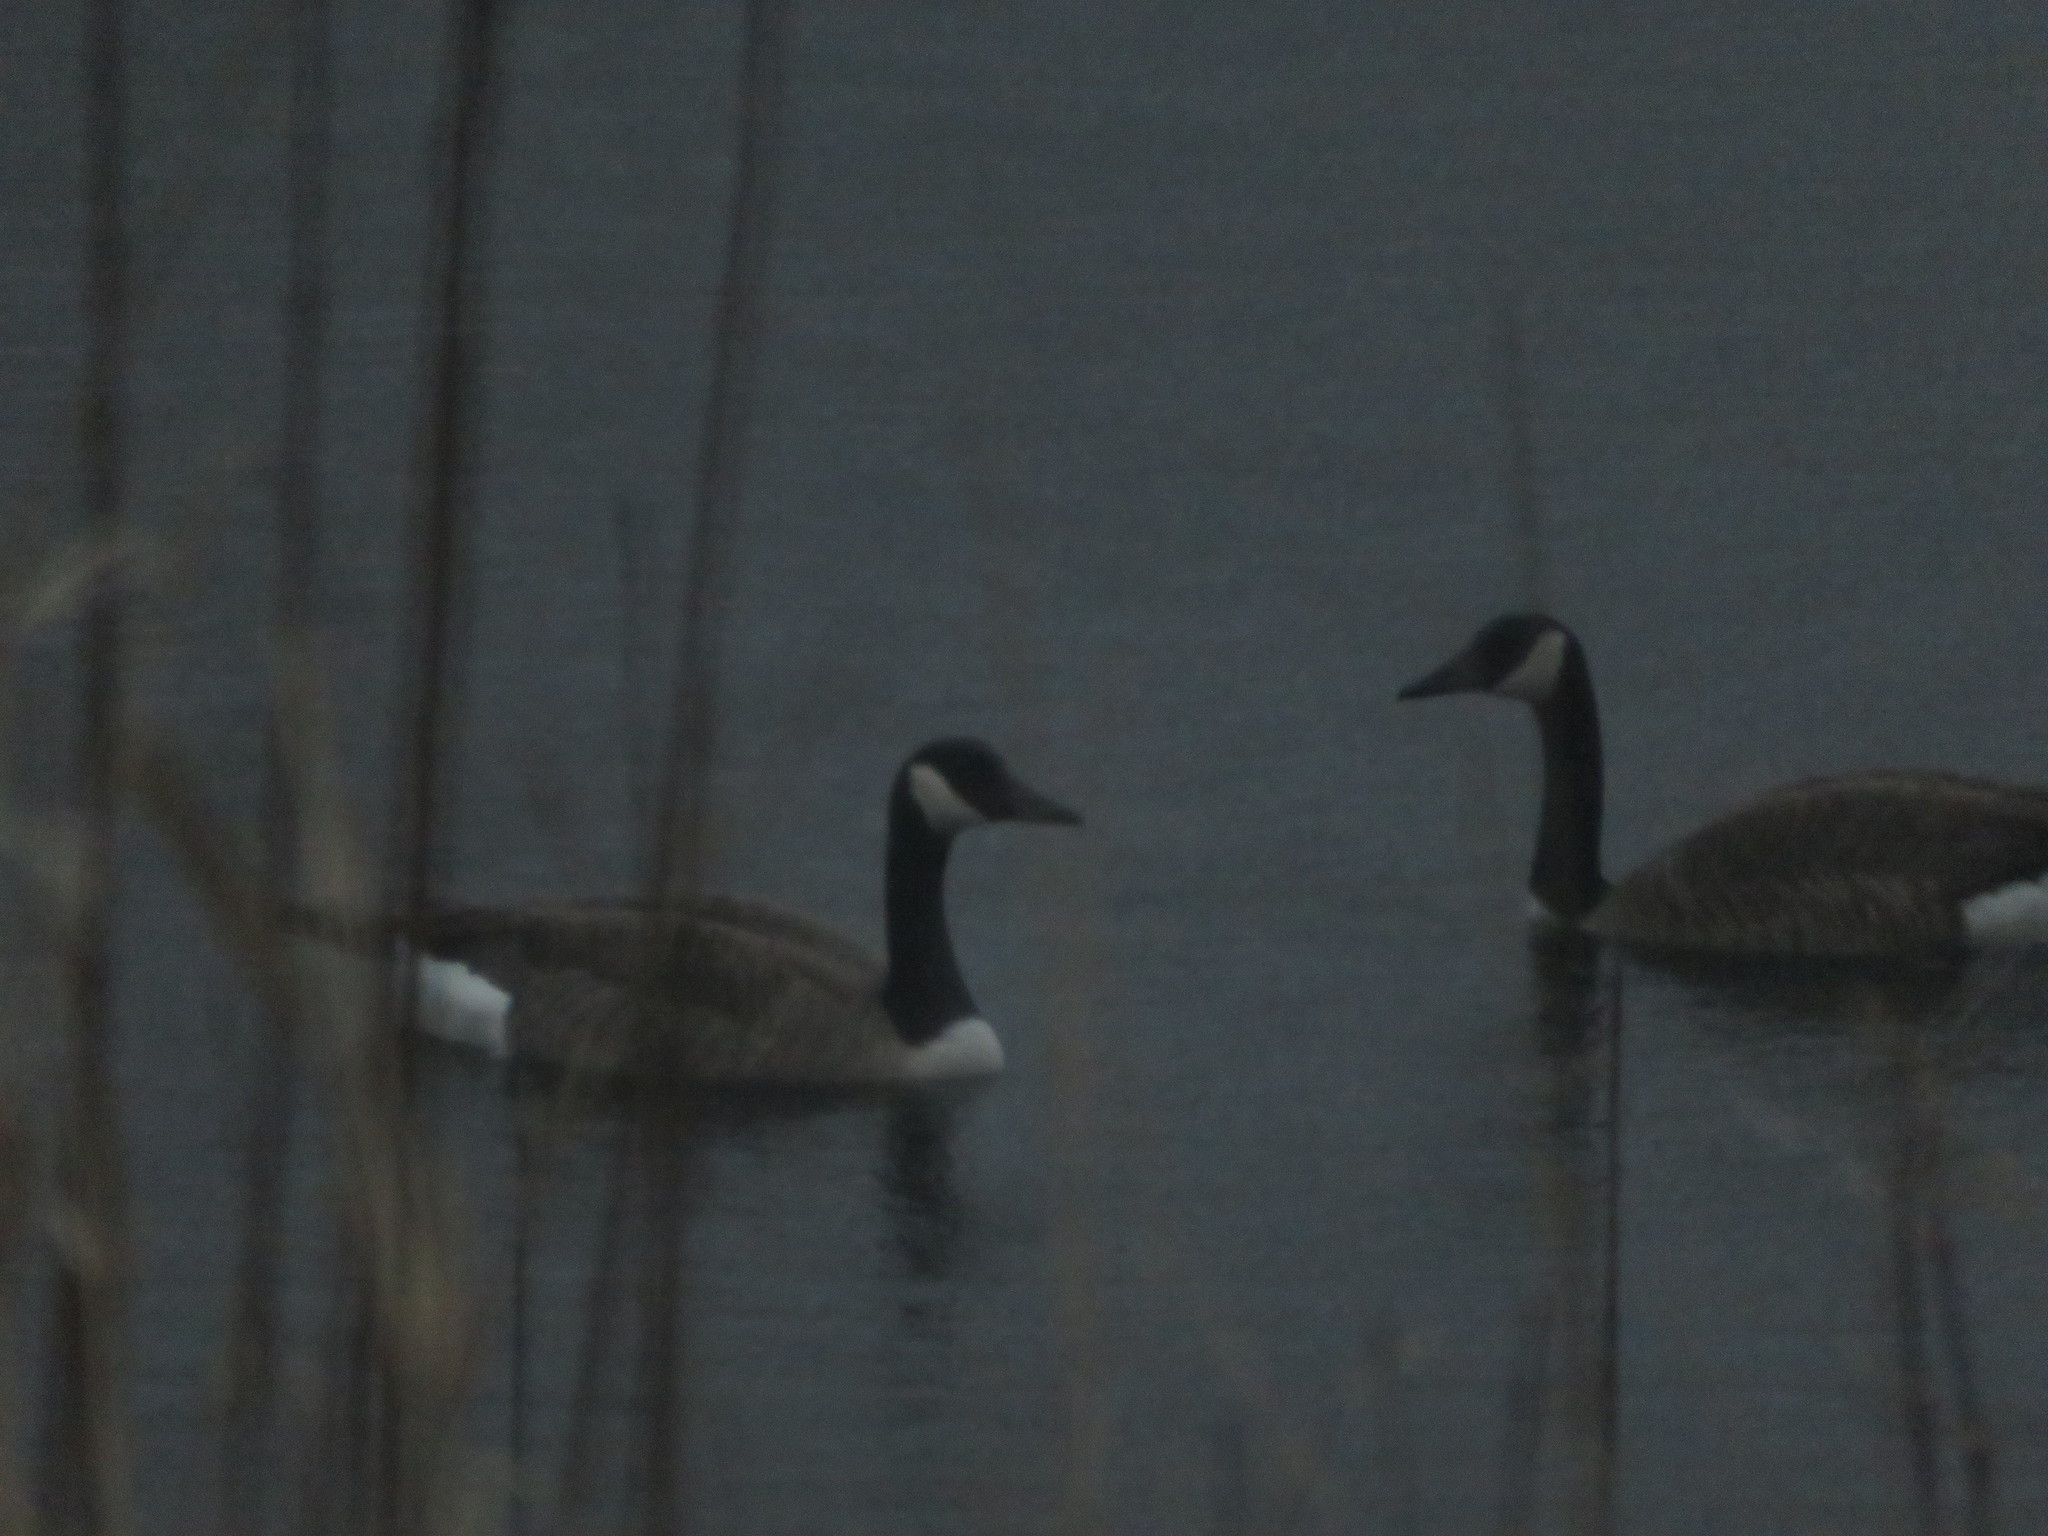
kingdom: Animalia
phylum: Chordata
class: Aves
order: Anseriformes
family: Anatidae
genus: Branta
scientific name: Branta canadensis
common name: Canada goose
